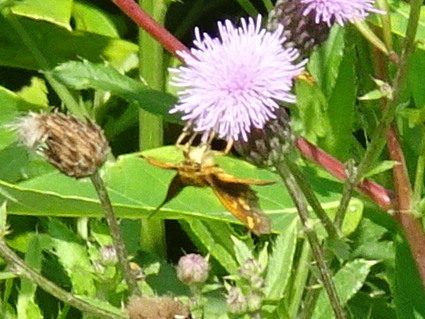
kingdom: Animalia
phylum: Arthropoda
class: Insecta
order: Lepidoptera
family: Hesperiidae
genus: Polites
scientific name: Polites coras
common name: Peck's skipper
